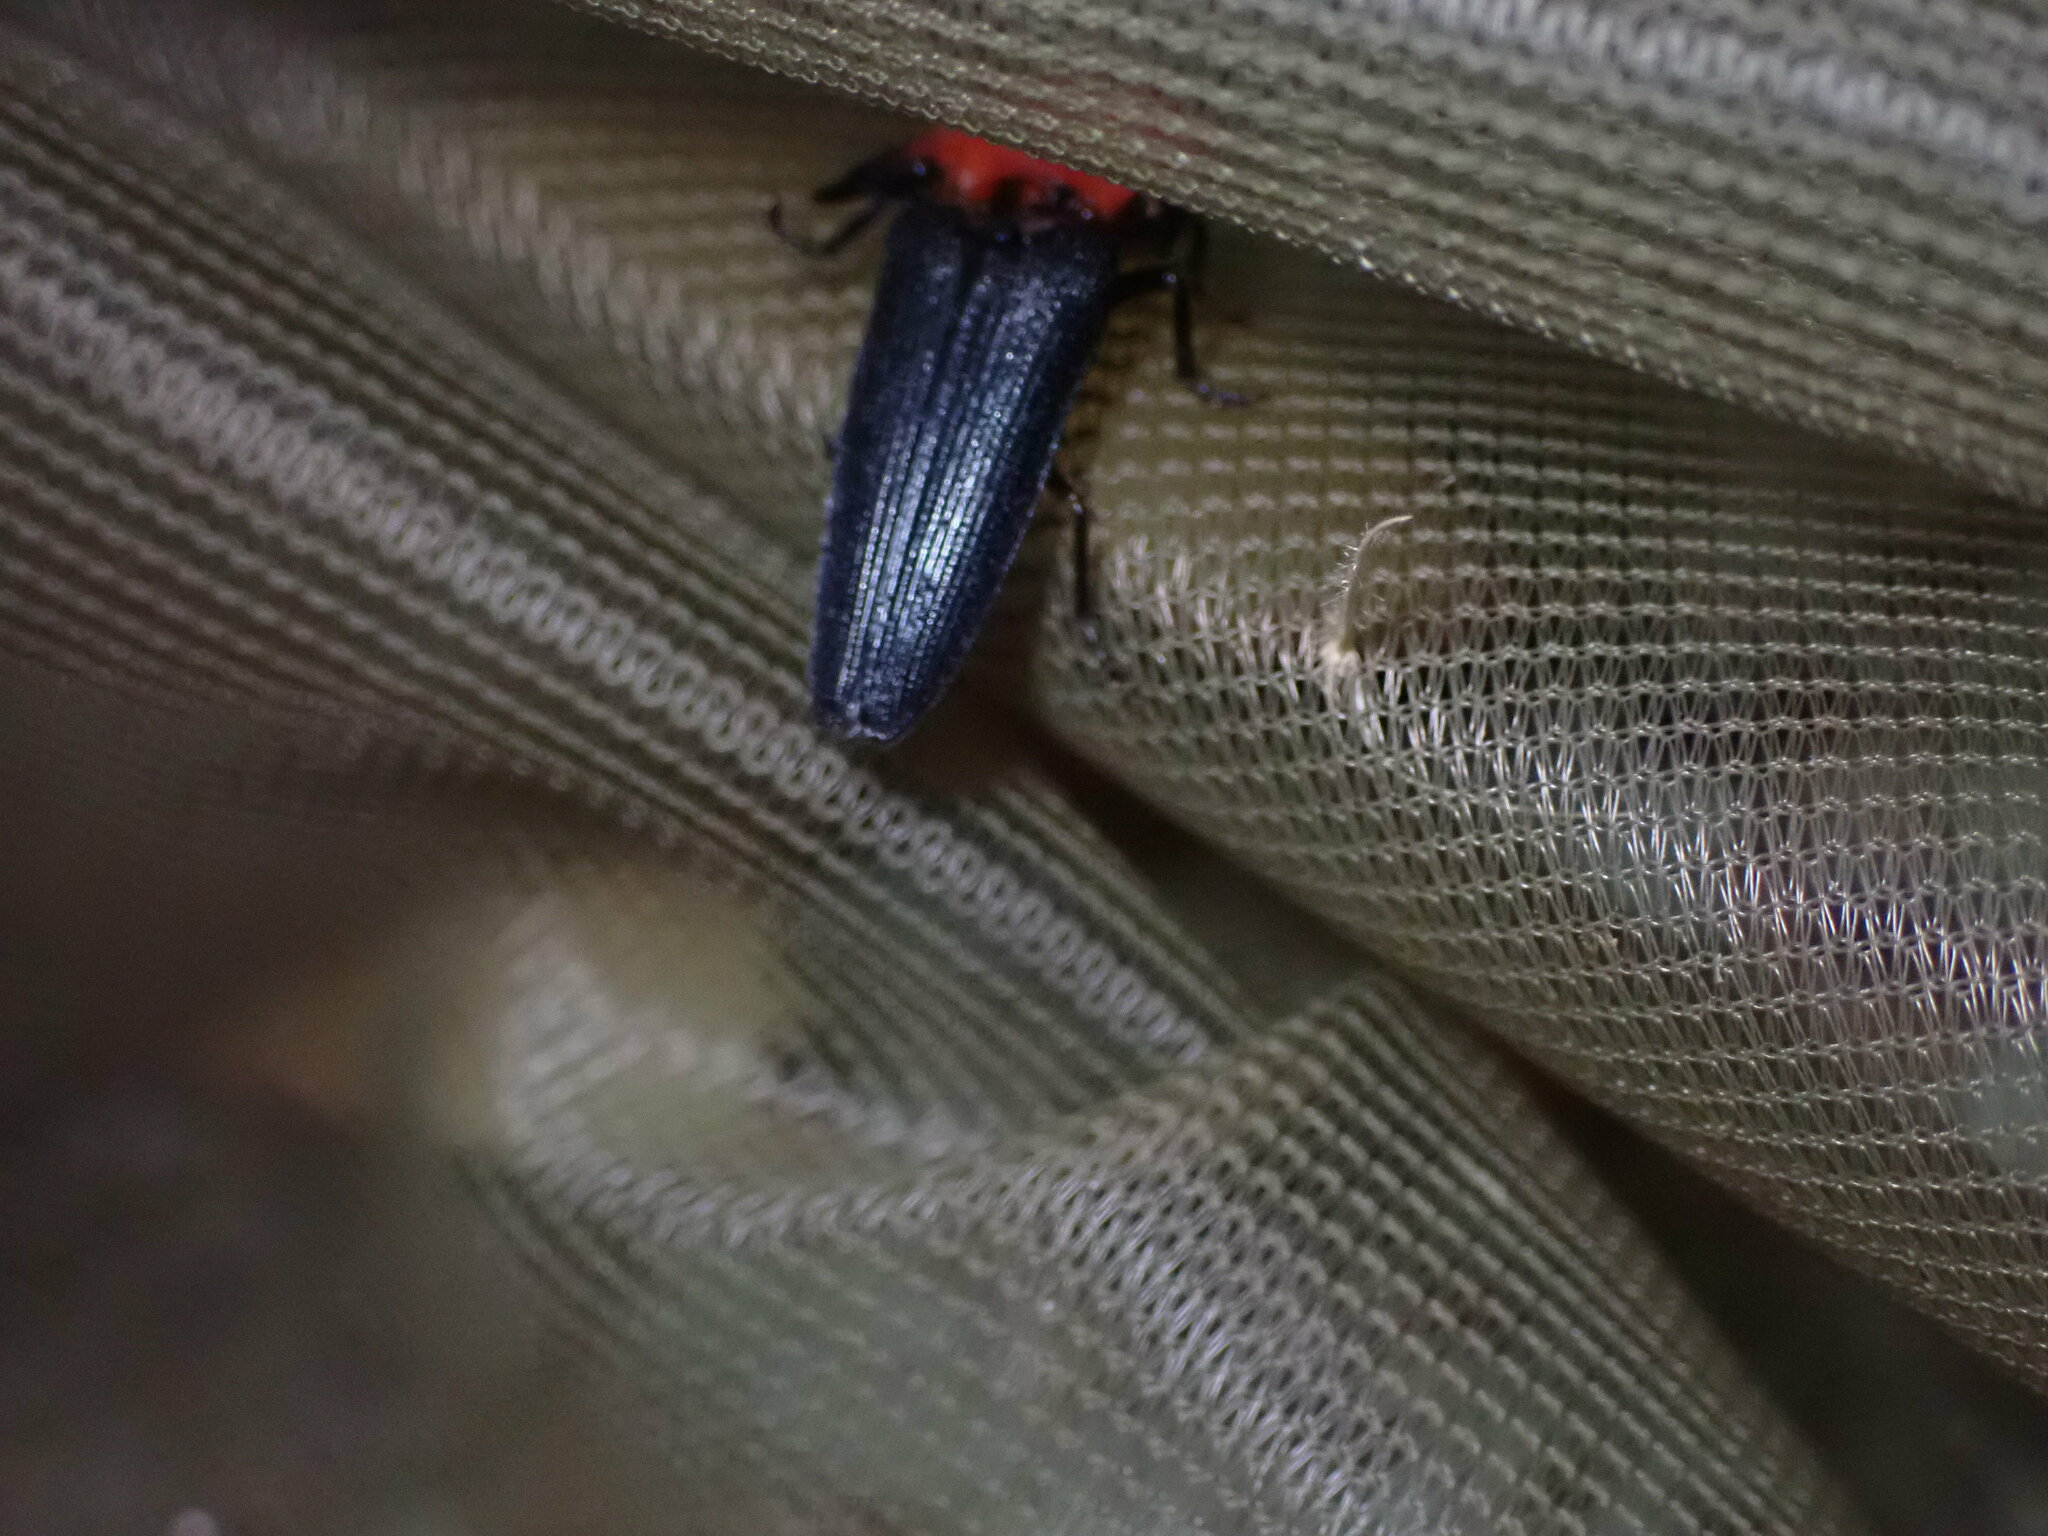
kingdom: Animalia
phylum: Arthropoda
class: Insecta
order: Coleoptera
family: Elateridae
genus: Pachyderes
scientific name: Pachyderes ruficollis
